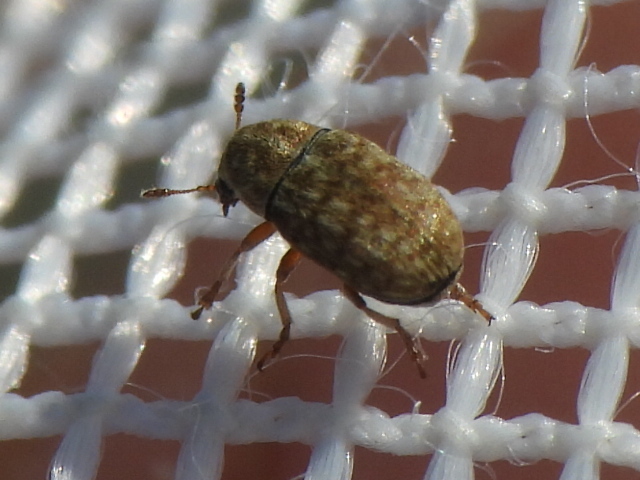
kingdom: Animalia
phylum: Arthropoda
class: Insecta
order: Coleoptera
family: Anthribidae
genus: Trigonorhinus
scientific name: Trigonorhinus limbatus
